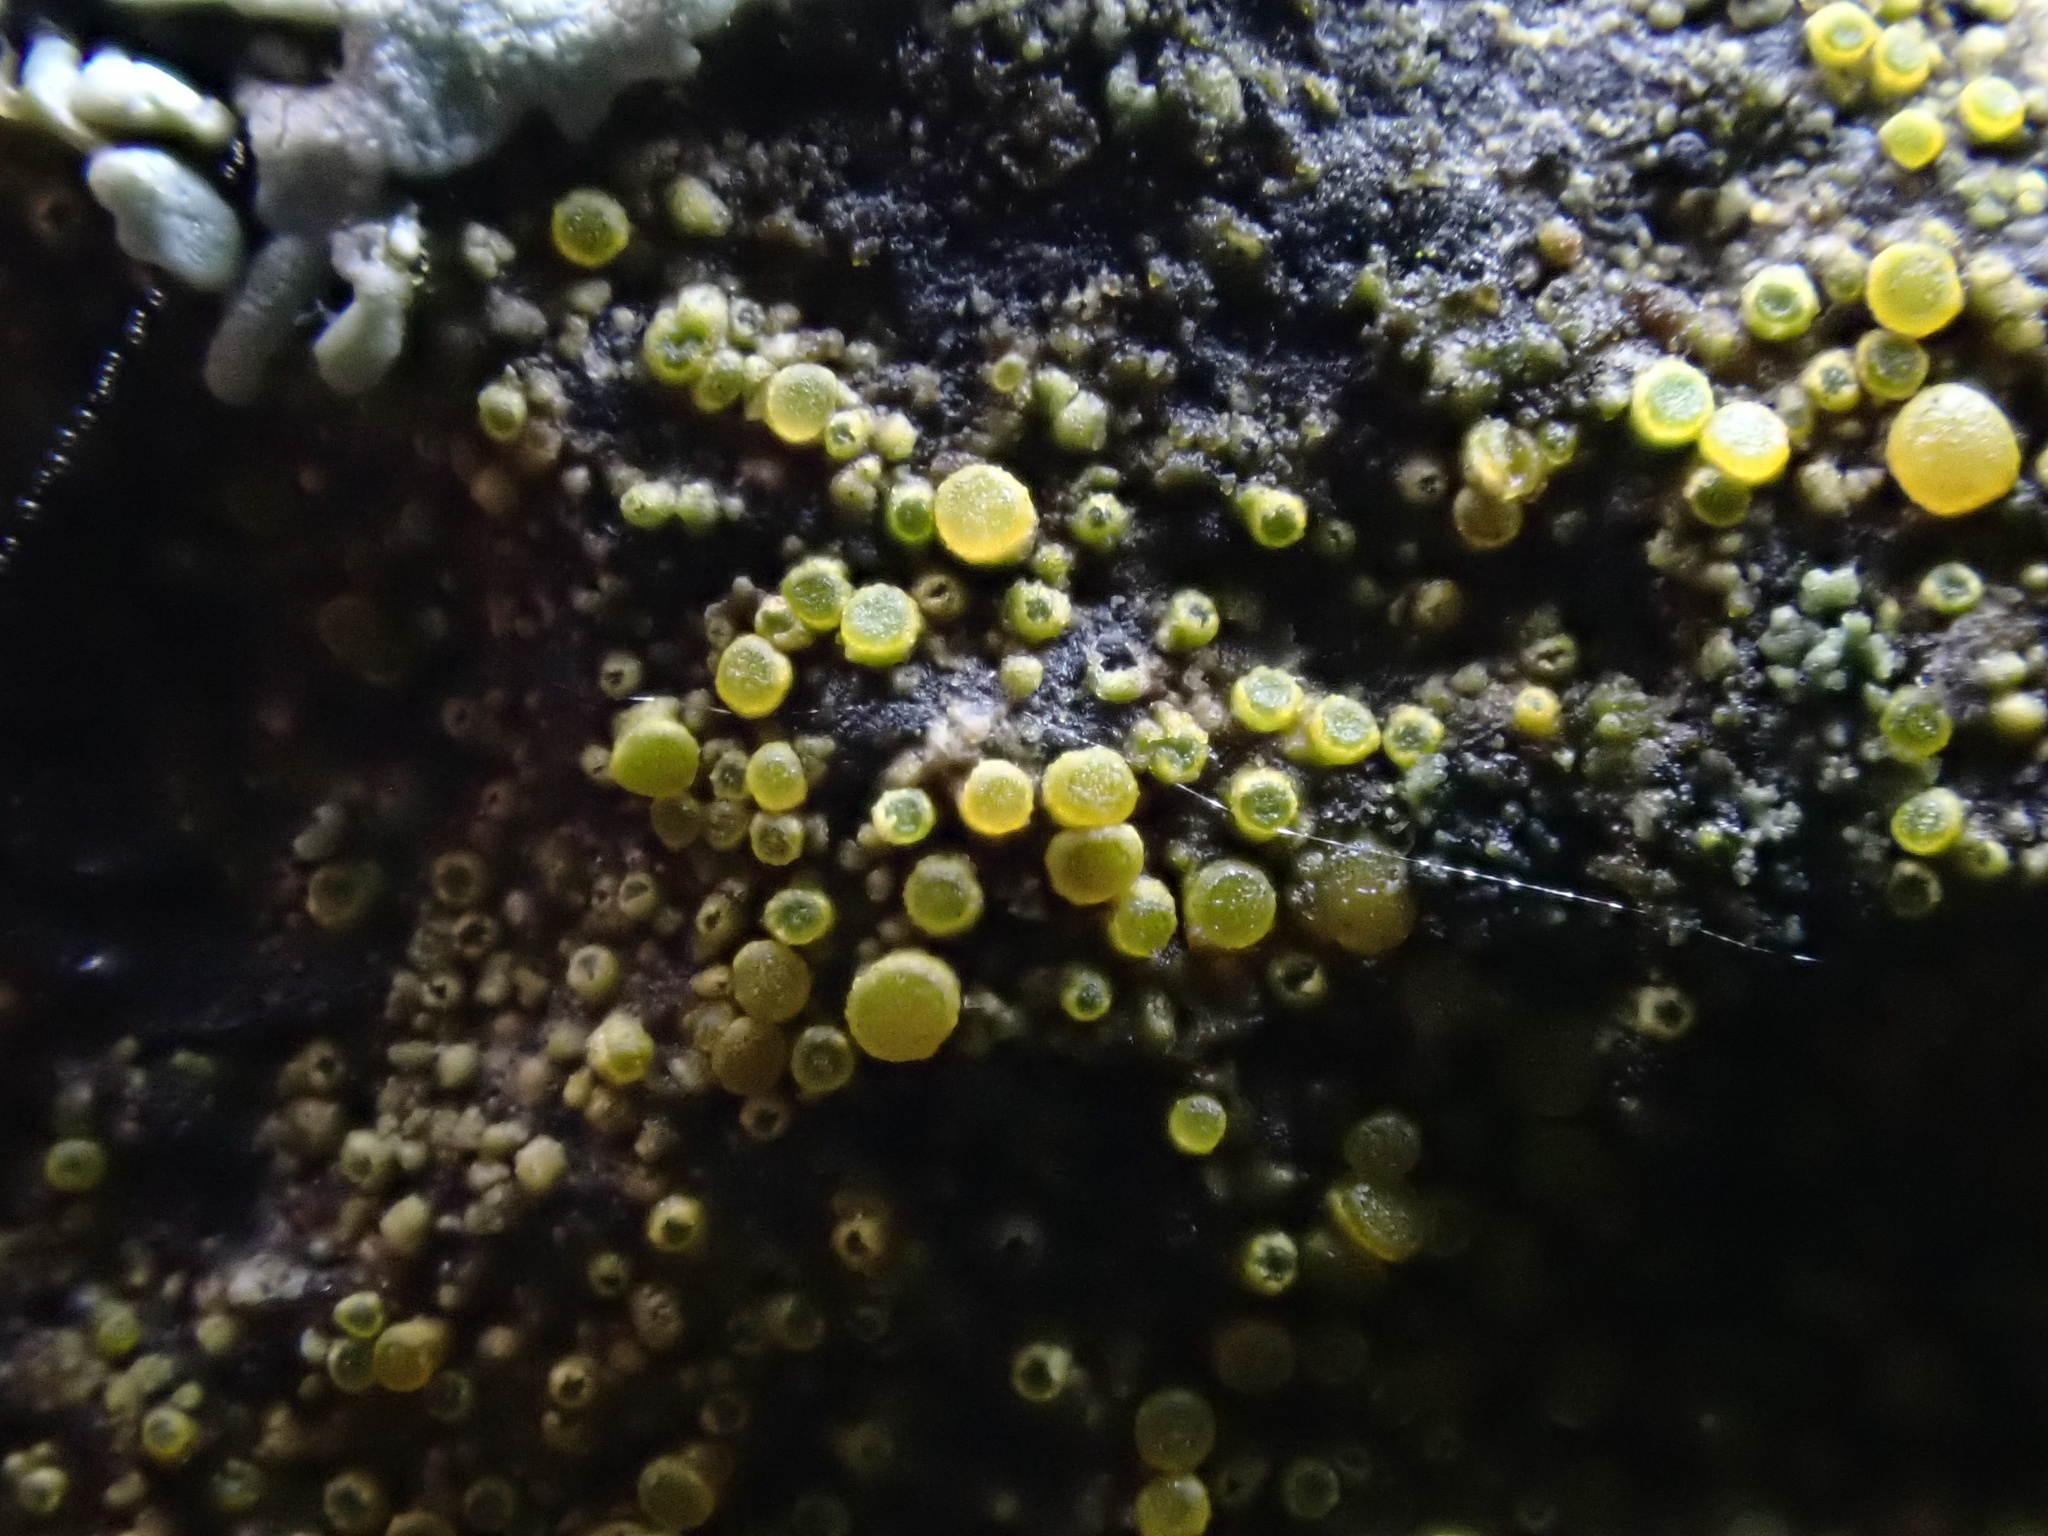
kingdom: Fungi
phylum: Ascomycota
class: Candelariomycetes
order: Candelariales
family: Candelariaceae
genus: Candelariella
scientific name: Candelariella aurella
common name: Hidden goldspeck lichen
